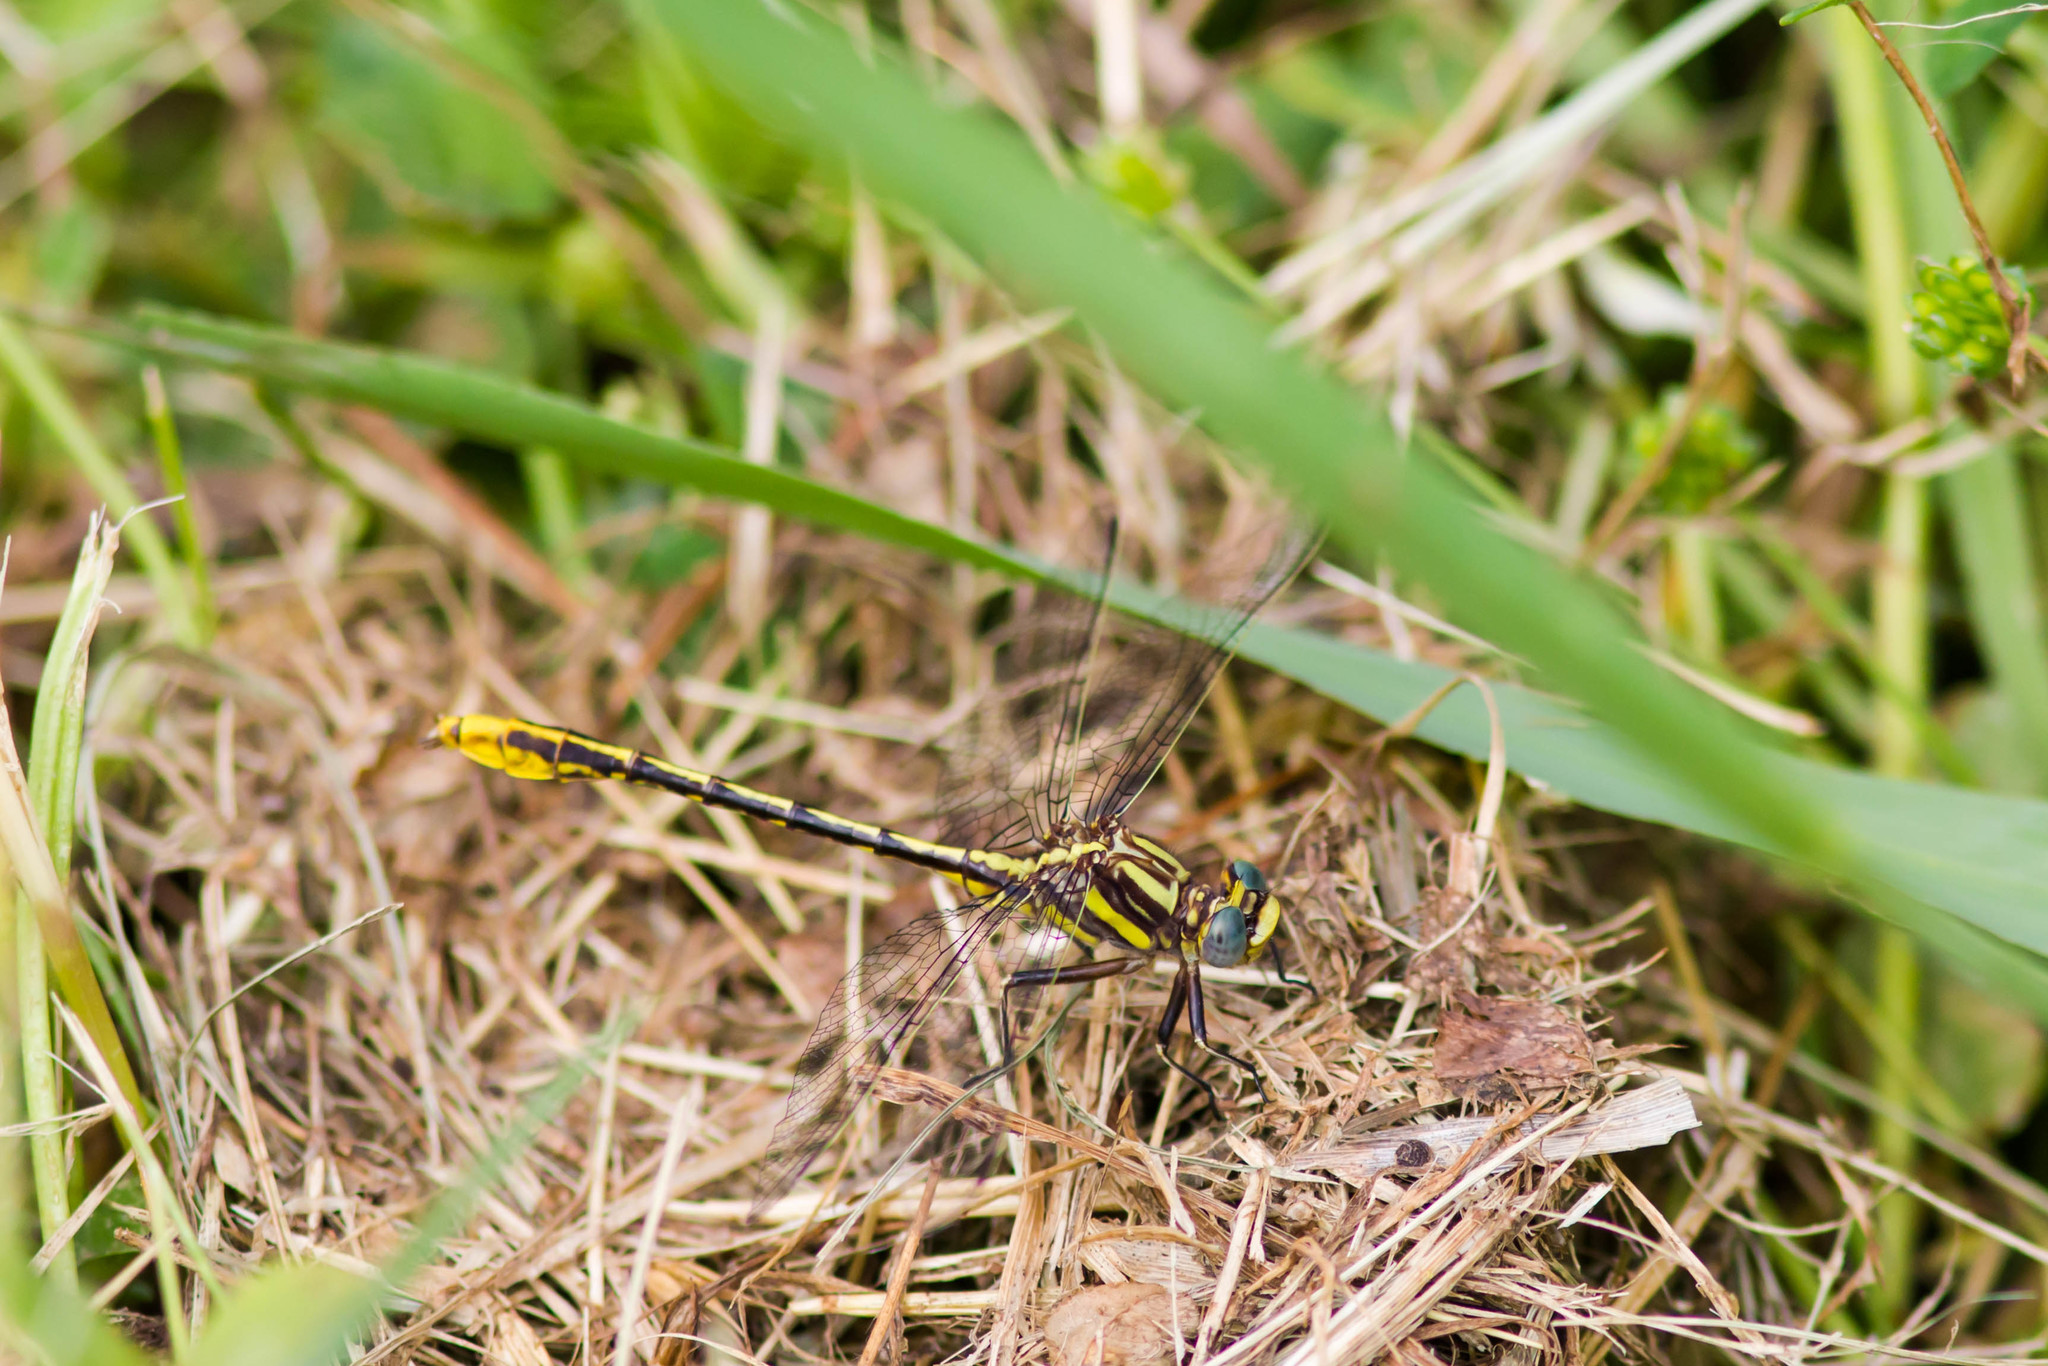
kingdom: Animalia
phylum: Arthropoda
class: Insecta
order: Odonata
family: Gomphidae
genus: Phanogomphus
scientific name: Phanogomphus exilis
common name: Lancet clubtail
